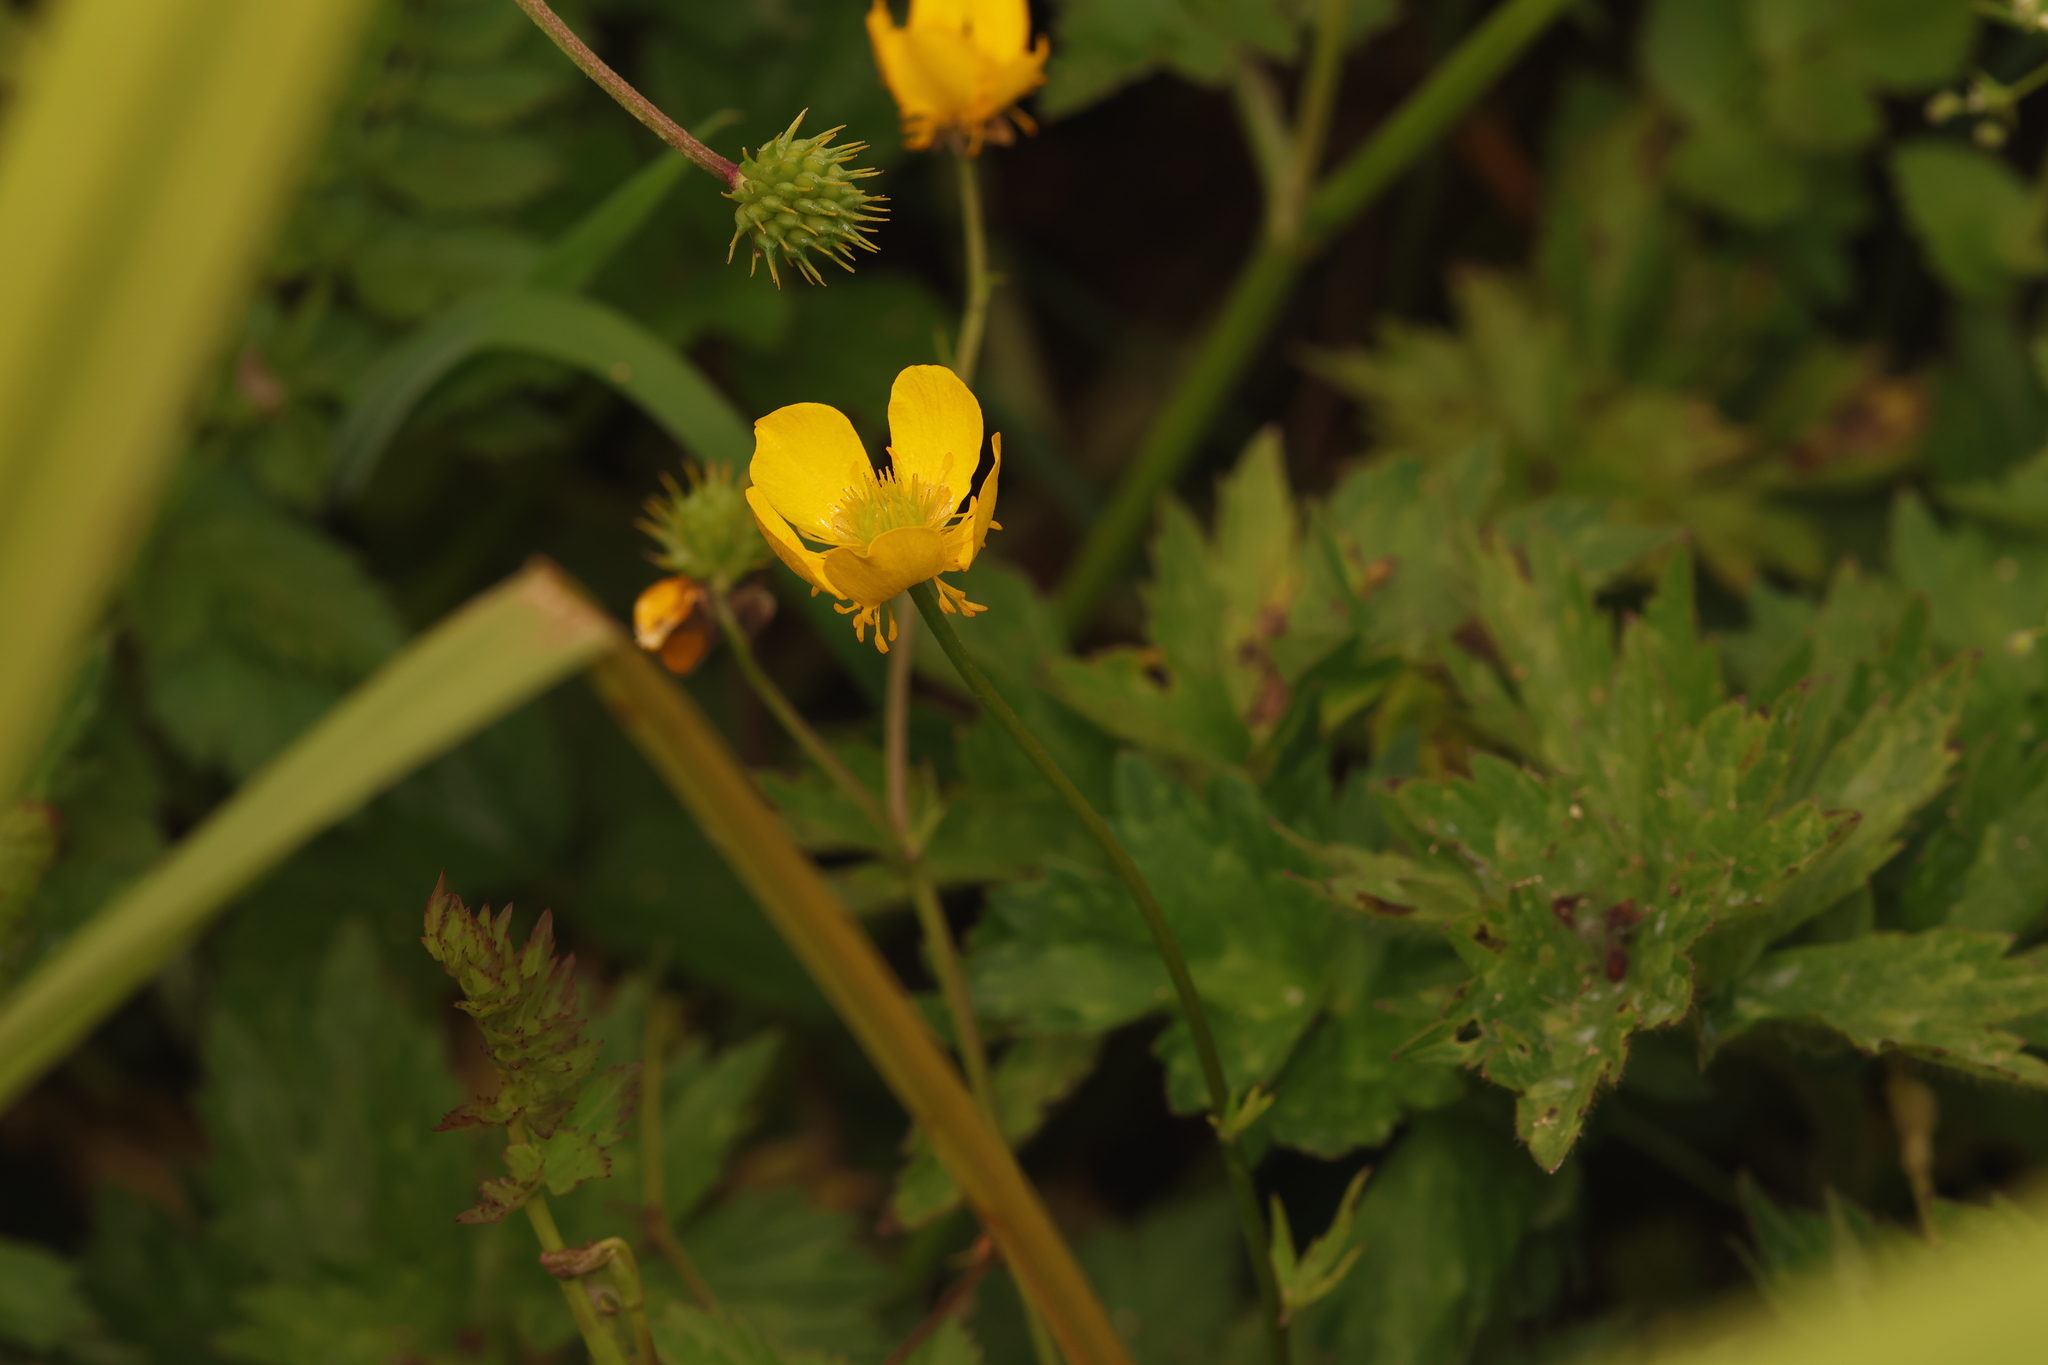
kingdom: Plantae
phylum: Tracheophyta
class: Magnoliopsida
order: Ranunculales
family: Ranunculaceae
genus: Ranunculus
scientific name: Ranunculus orthorhynchus
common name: Straight-beak buttercup
